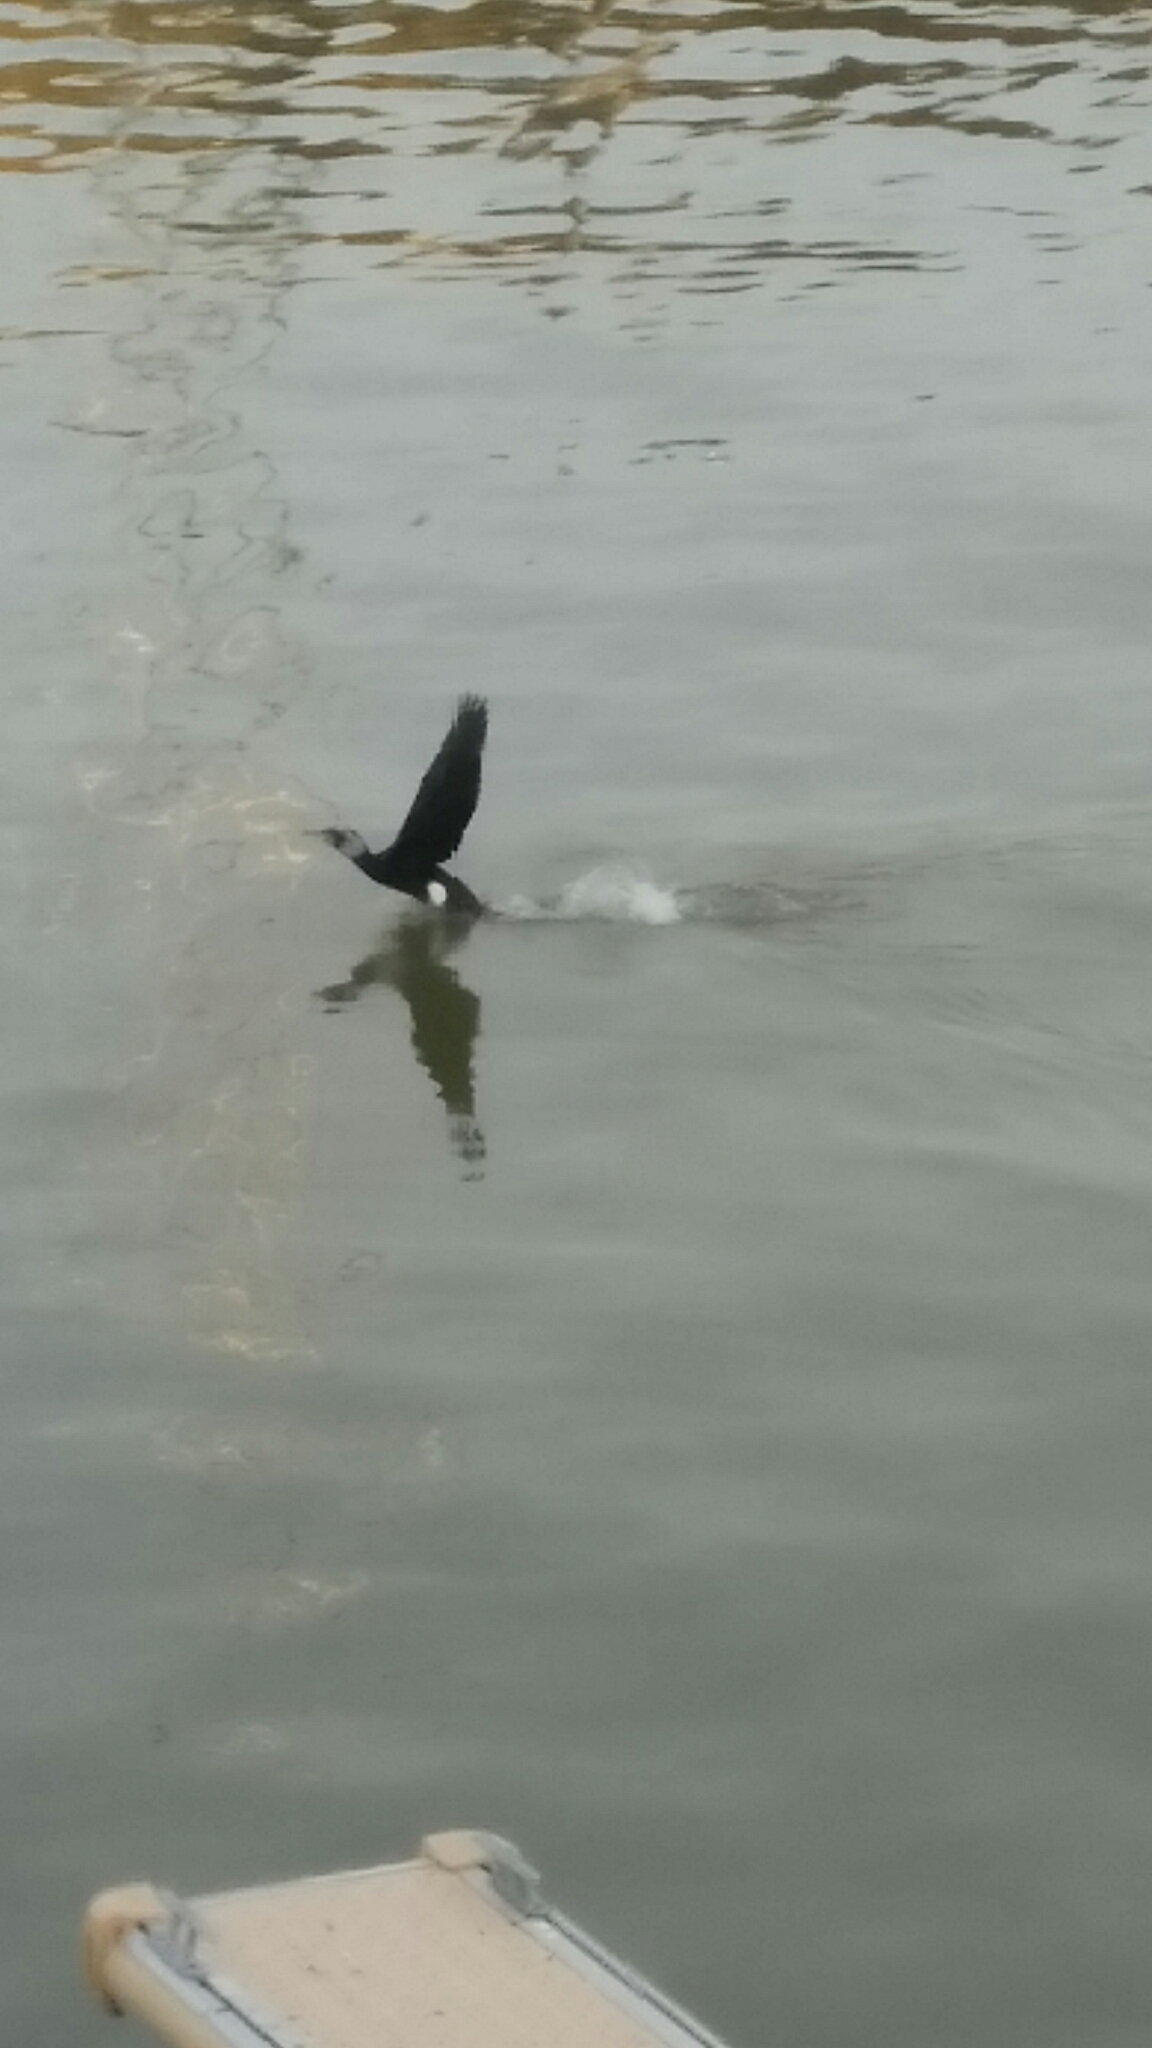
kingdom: Animalia
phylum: Chordata
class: Aves
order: Suliformes
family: Phalacrocoracidae
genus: Phalacrocorax
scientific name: Phalacrocorax carbo
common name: Great cormorant
